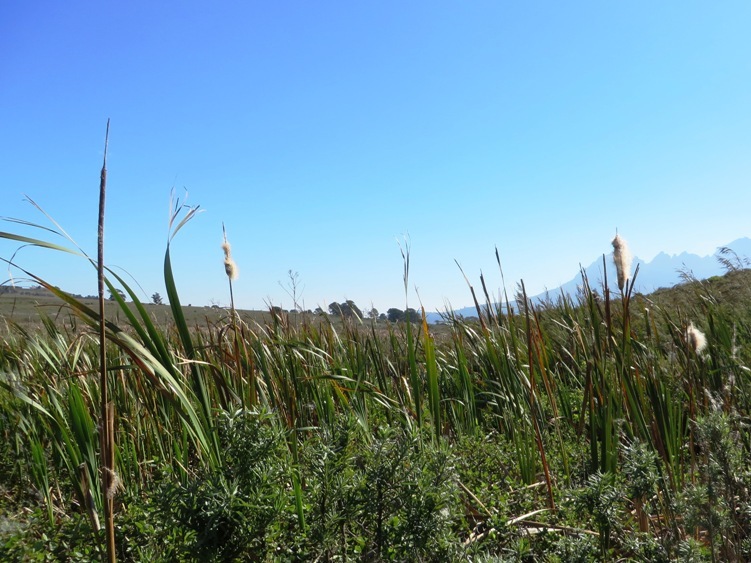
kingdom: Plantae
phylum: Tracheophyta
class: Liliopsida
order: Poales
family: Typhaceae
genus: Typha
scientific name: Typha capensis
